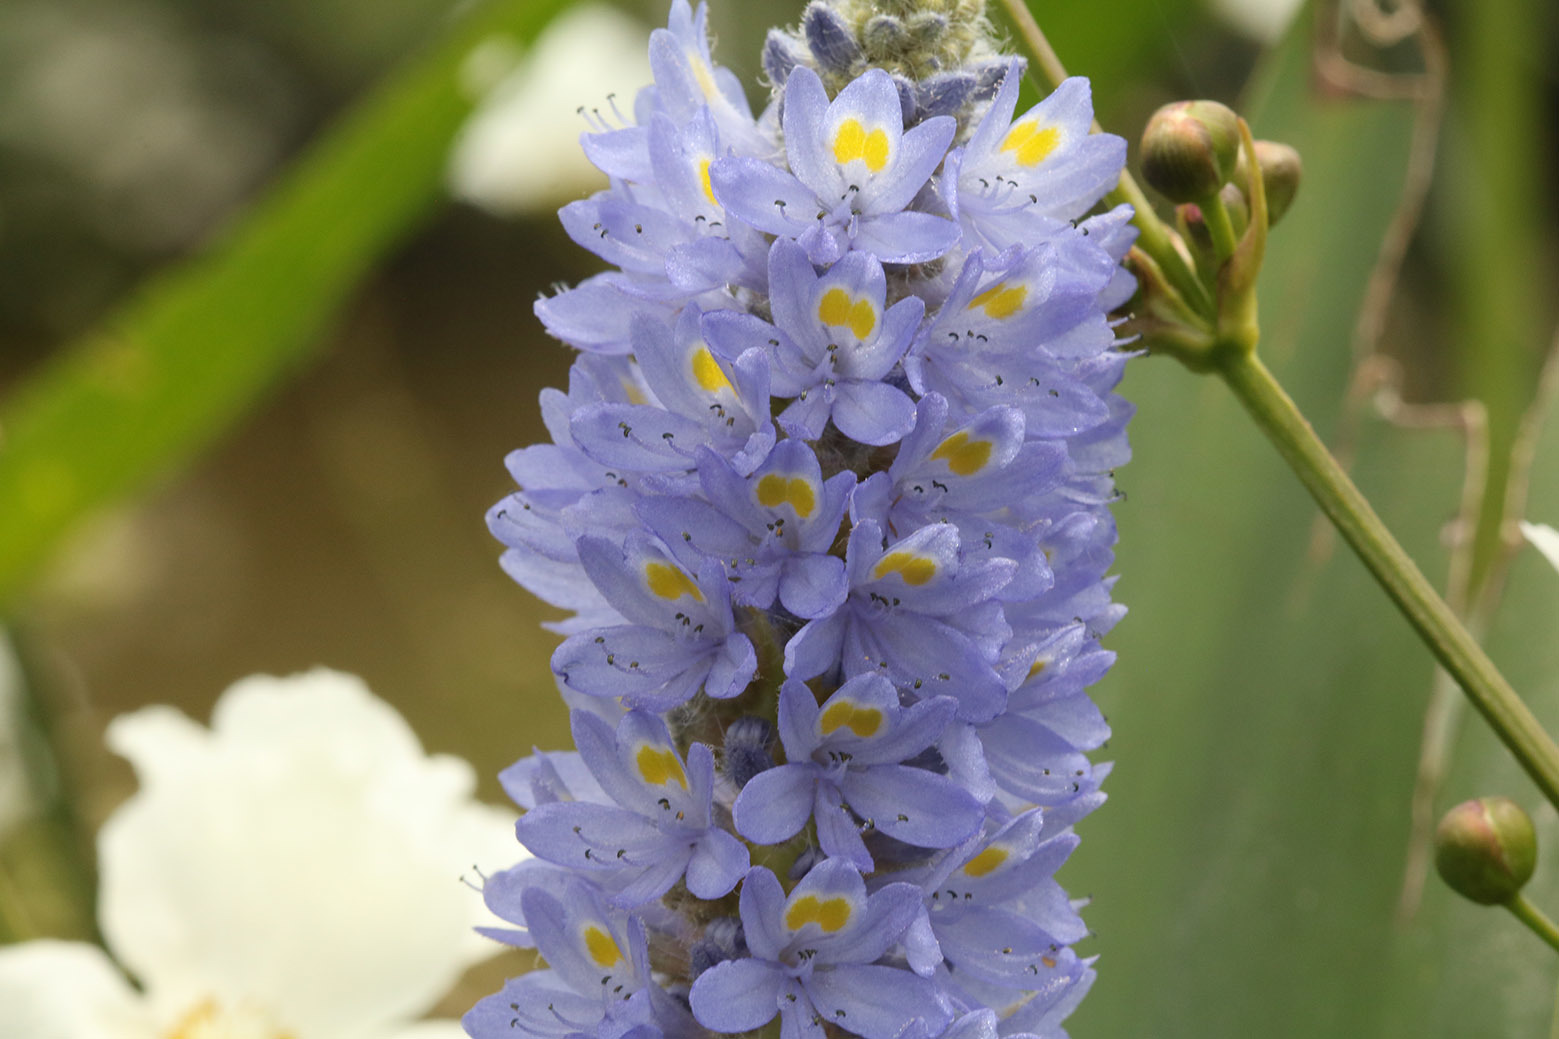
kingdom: Plantae
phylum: Tracheophyta
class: Liliopsida
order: Commelinales
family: Pontederiaceae
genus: Pontederia
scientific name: Pontederia cordata
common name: Pickerelweed
